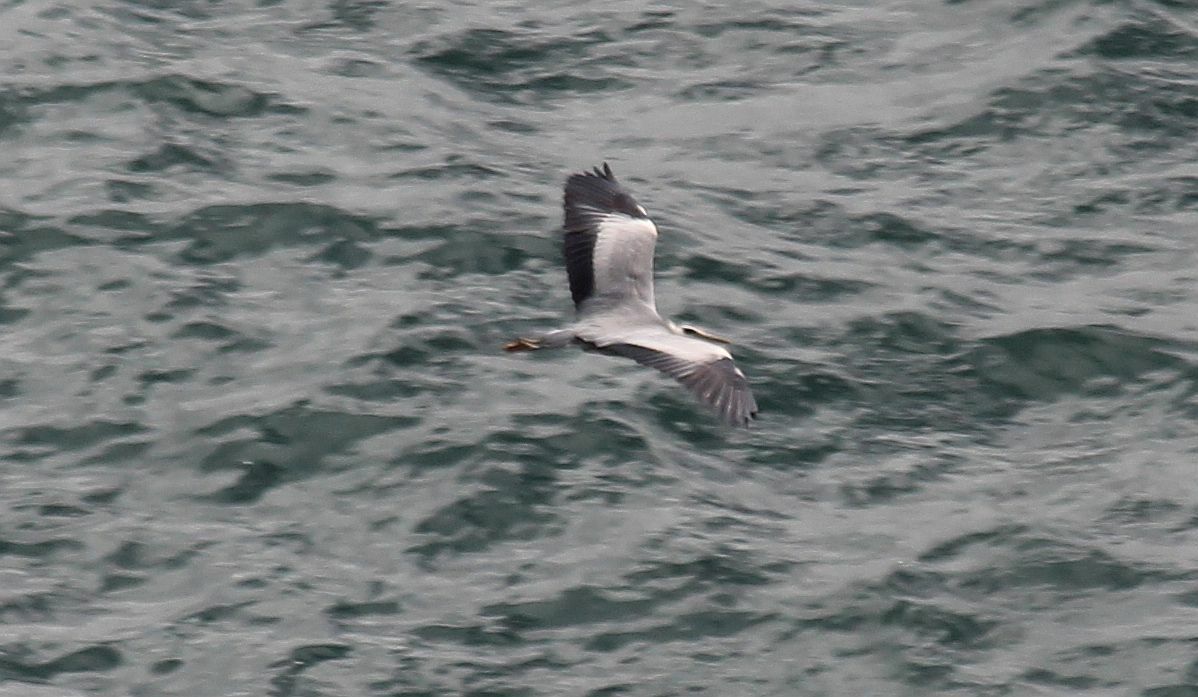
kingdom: Animalia
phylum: Chordata
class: Aves
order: Pelecaniformes
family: Ardeidae
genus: Ardea
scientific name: Ardea cinerea
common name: Grey heron
